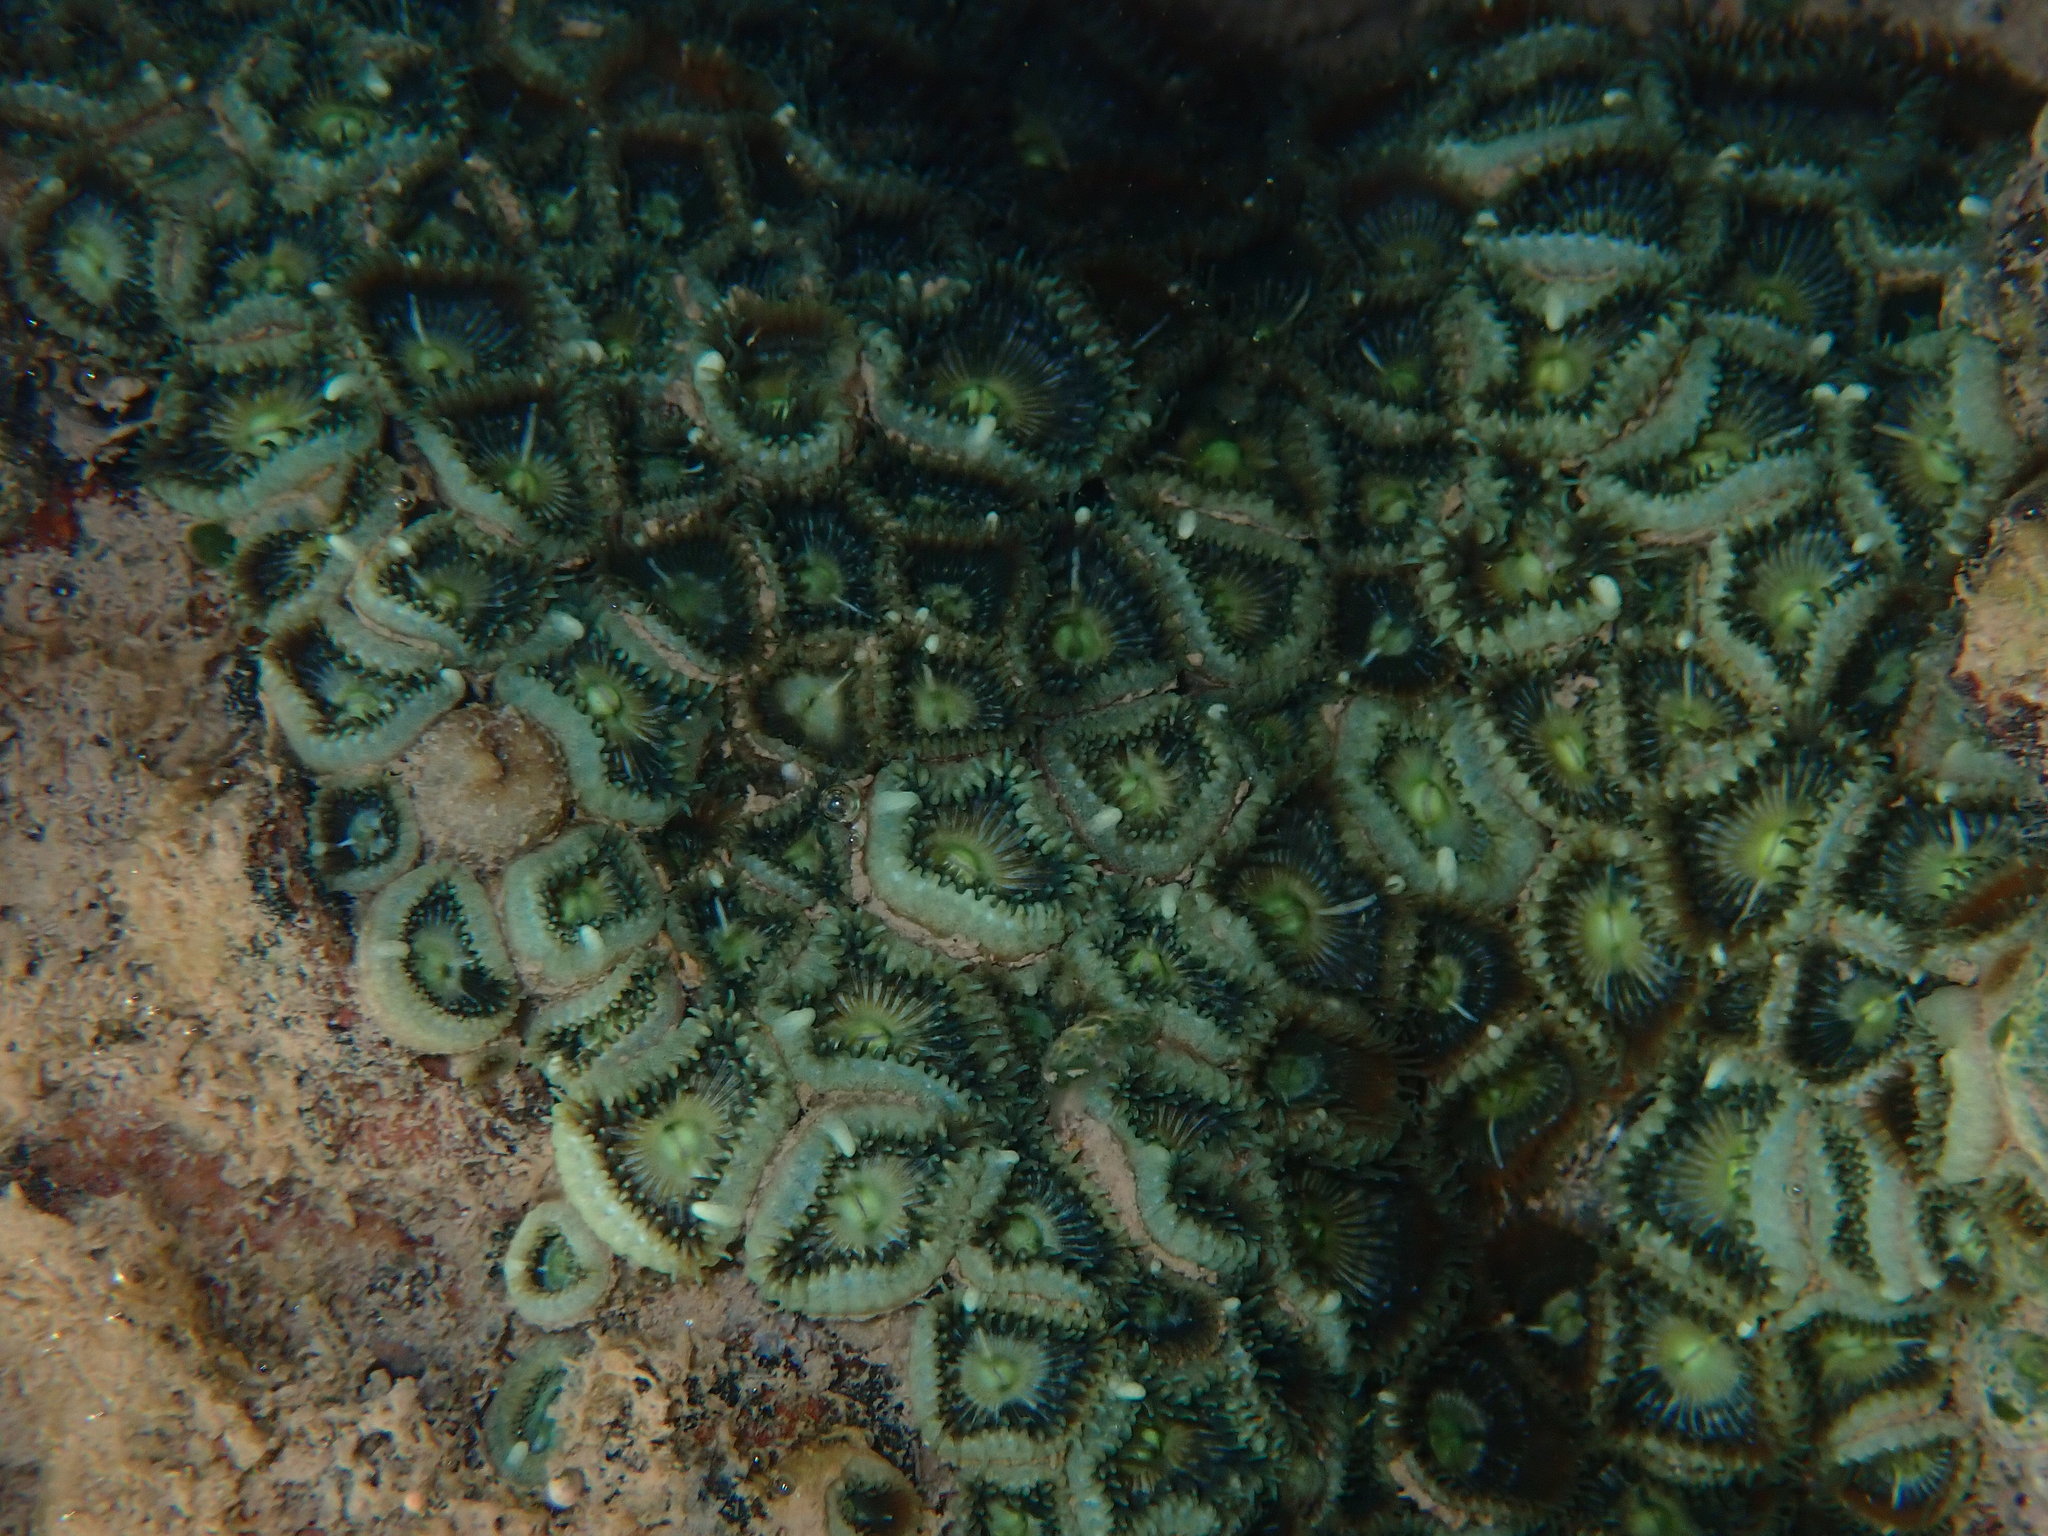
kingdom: Animalia
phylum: Cnidaria
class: Anthozoa
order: Zoantharia
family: Sphenopidae
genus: Palythoa
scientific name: Palythoa mutuki
